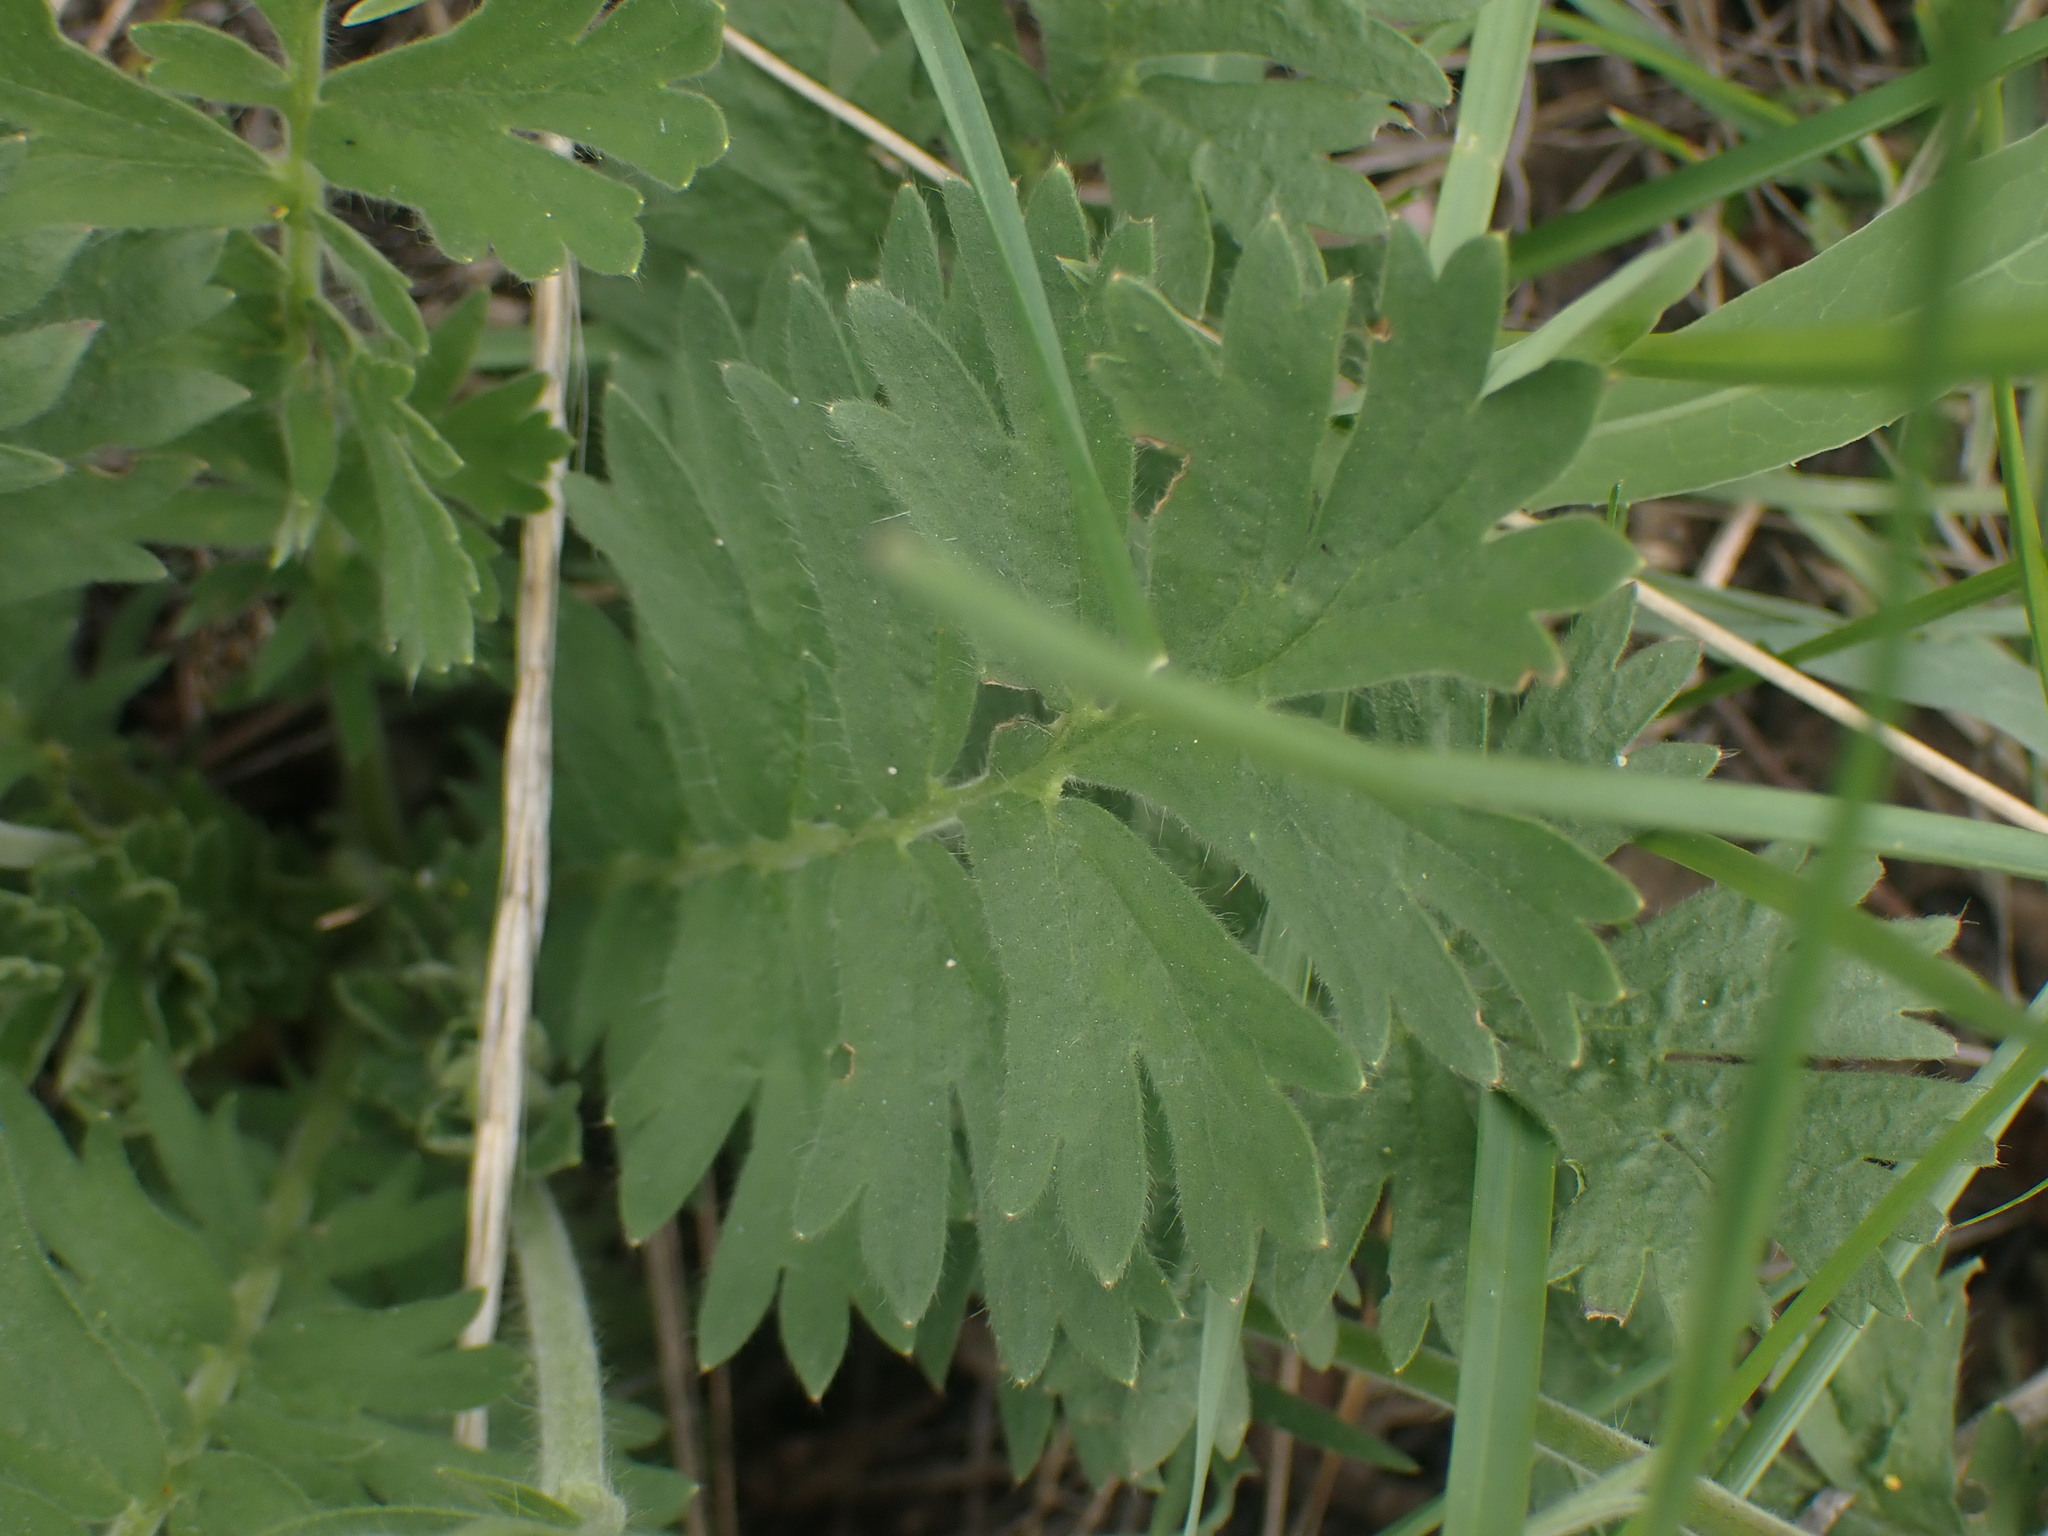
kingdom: Plantae
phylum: Tracheophyta
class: Magnoliopsida
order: Rosales
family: Rosaceae
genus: Geum
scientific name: Geum triflorum
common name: Old man's whiskers
